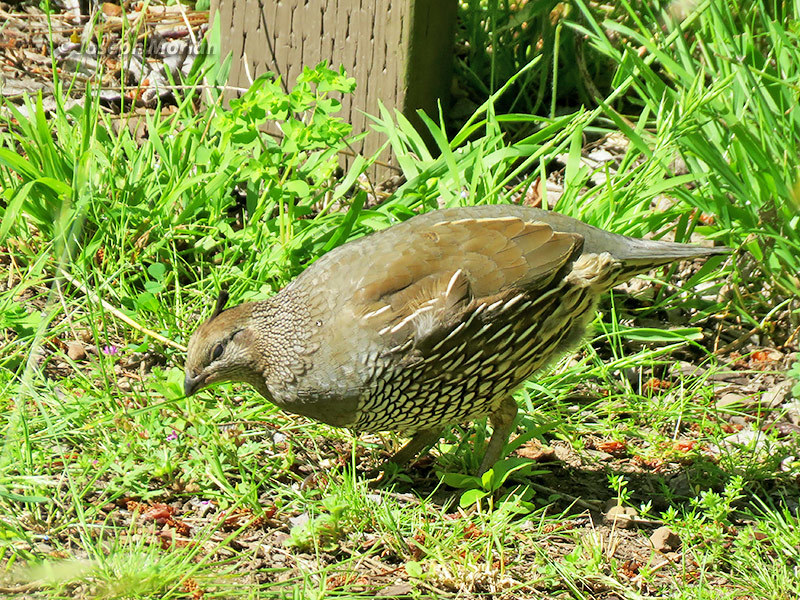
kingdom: Animalia
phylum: Chordata
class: Aves
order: Galliformes
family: Odontophoridae
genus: Callipepla
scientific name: Callipepla californica
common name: California quail
